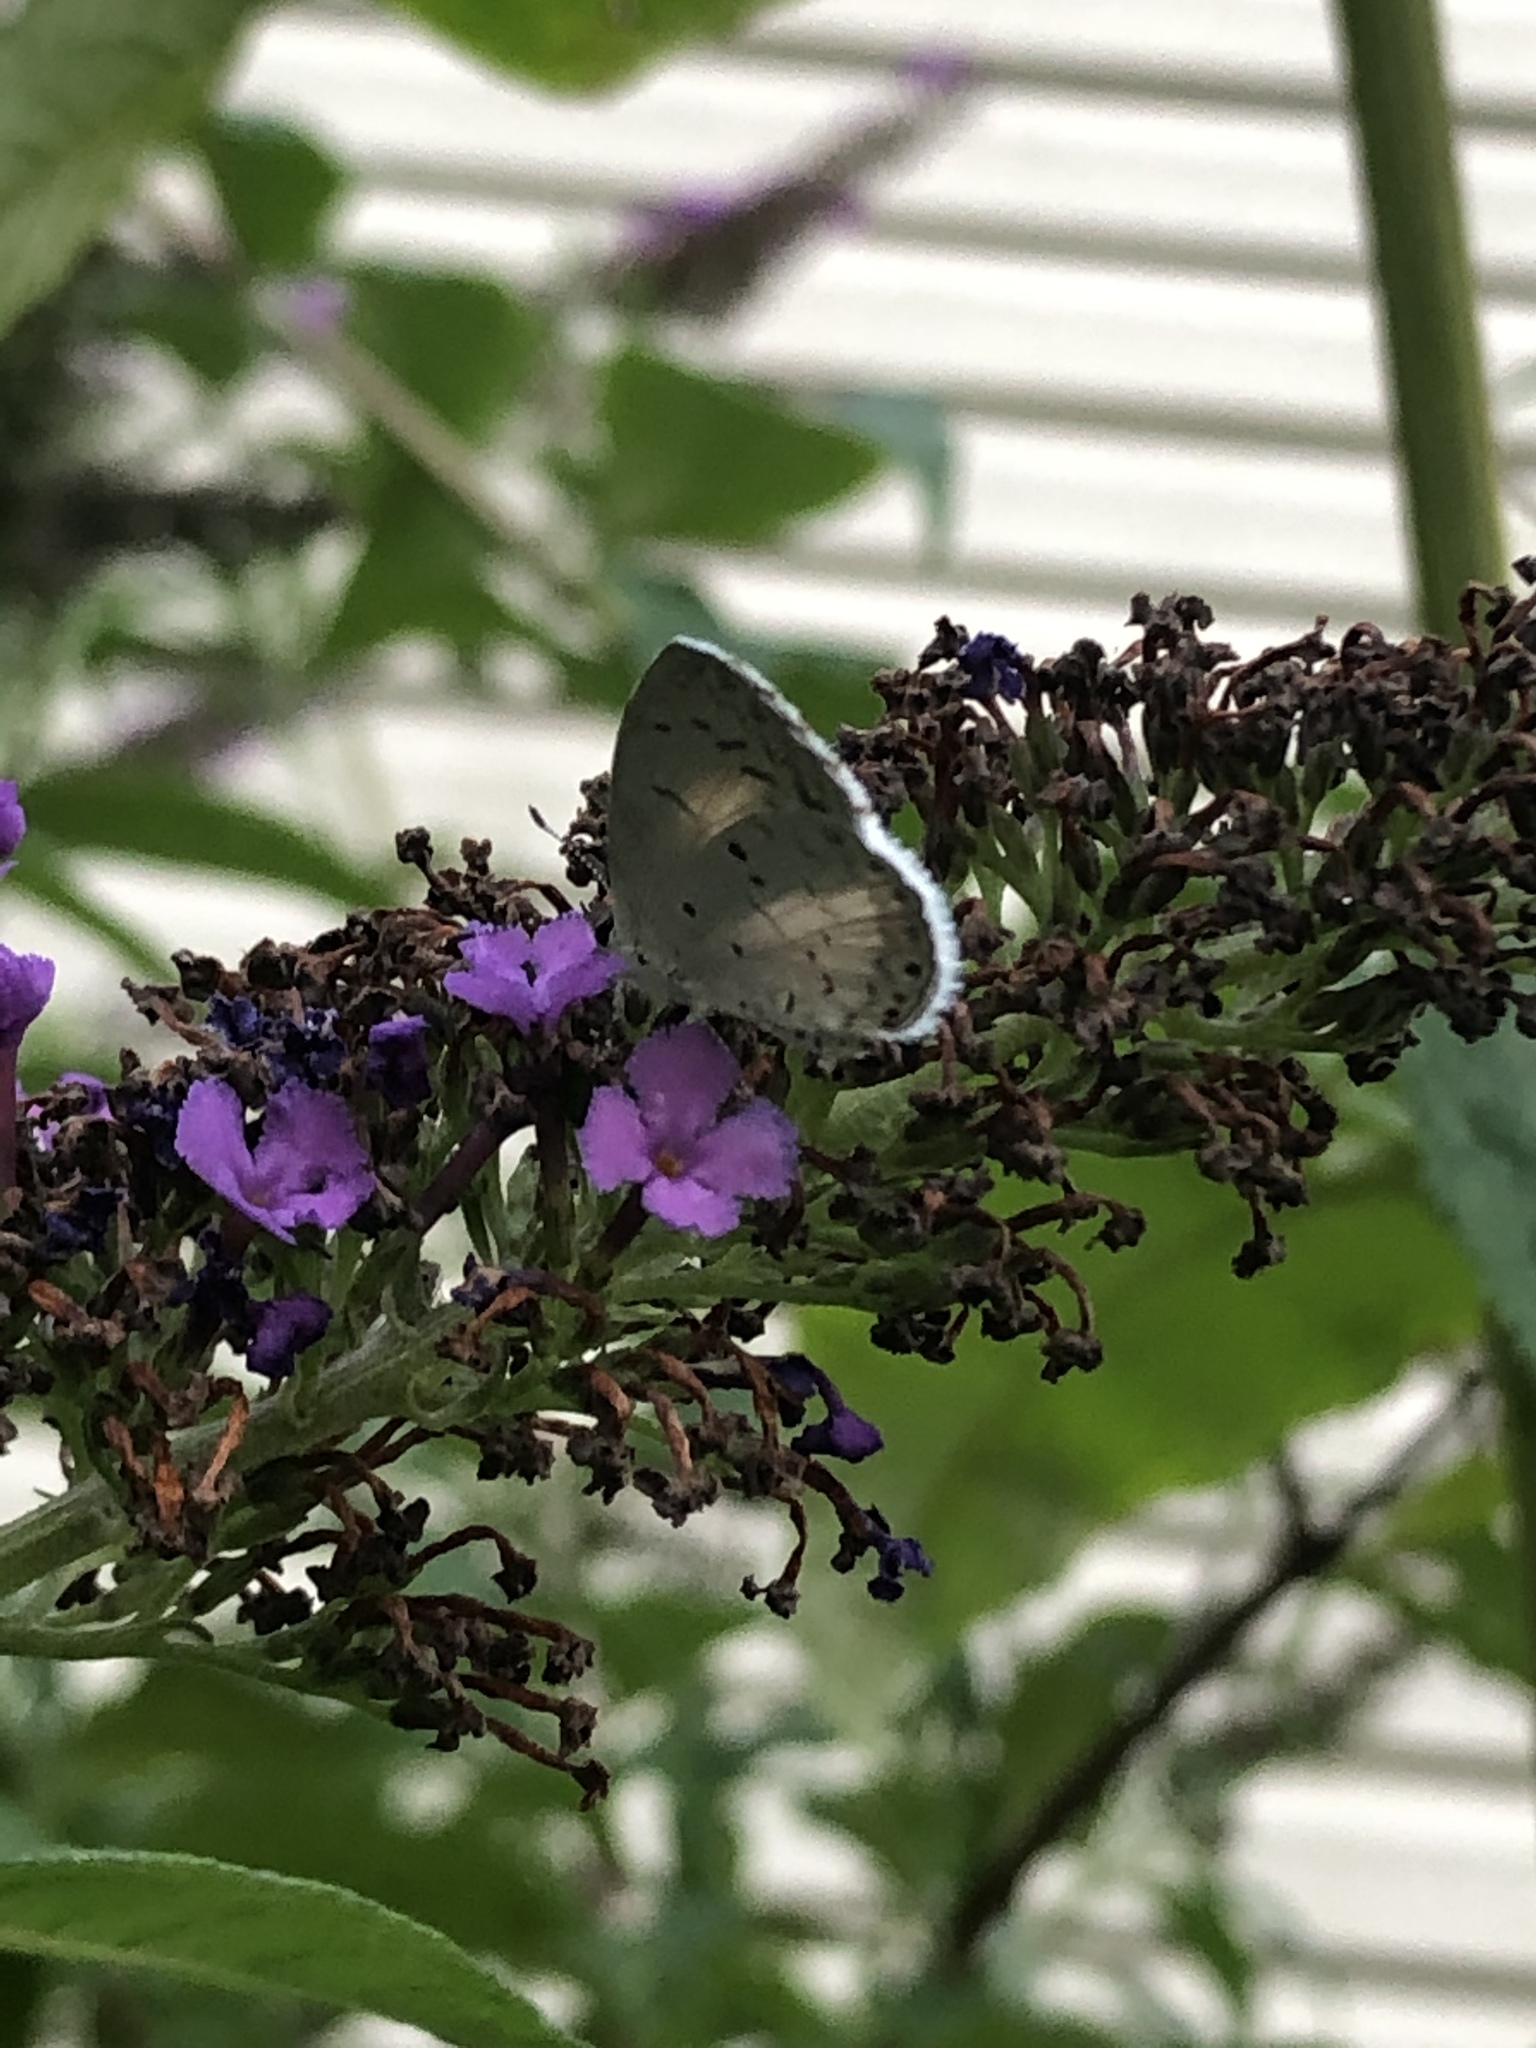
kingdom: Animalia
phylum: Arthropoda
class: Insecta
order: Lepidoptera
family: Lycaenidae
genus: Cyaniris
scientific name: Cyaniris neglecta
